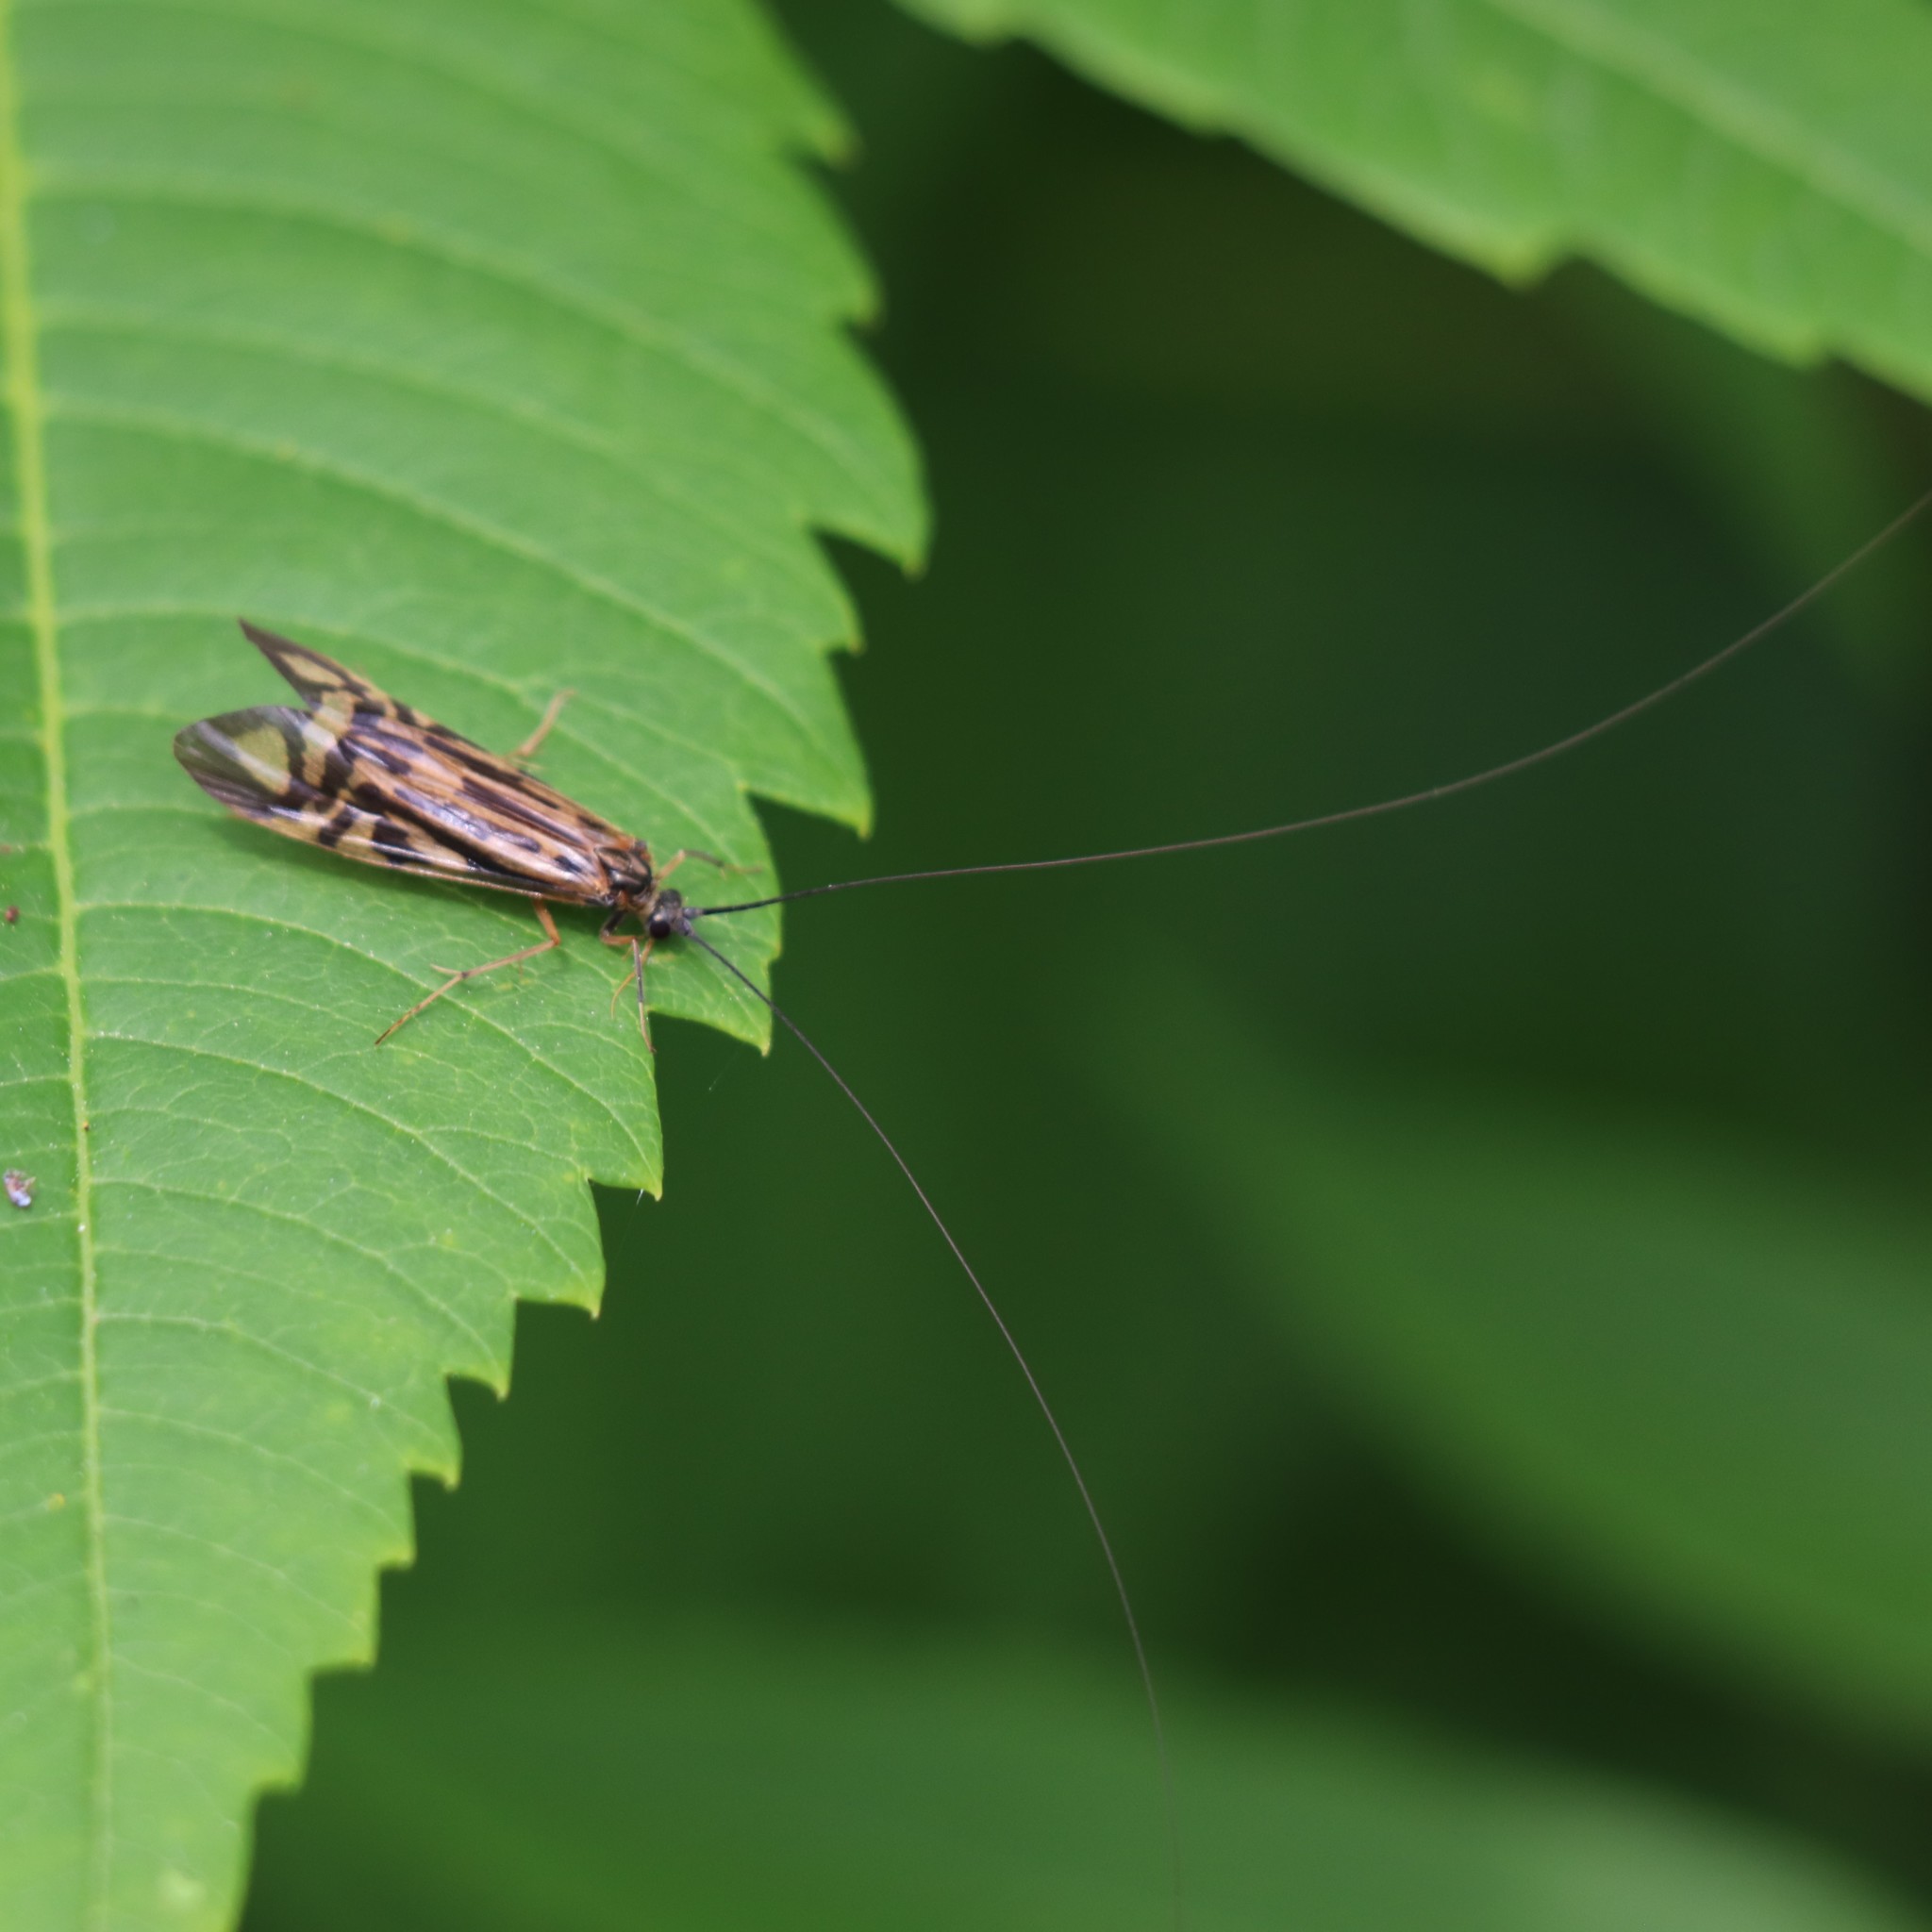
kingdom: Animalia
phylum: Arthropoda
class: Insecta
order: Trichoptera
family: Hydropsychidae
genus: Macrostemum
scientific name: Macrostemum zebratum
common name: Zebra caddisfly
